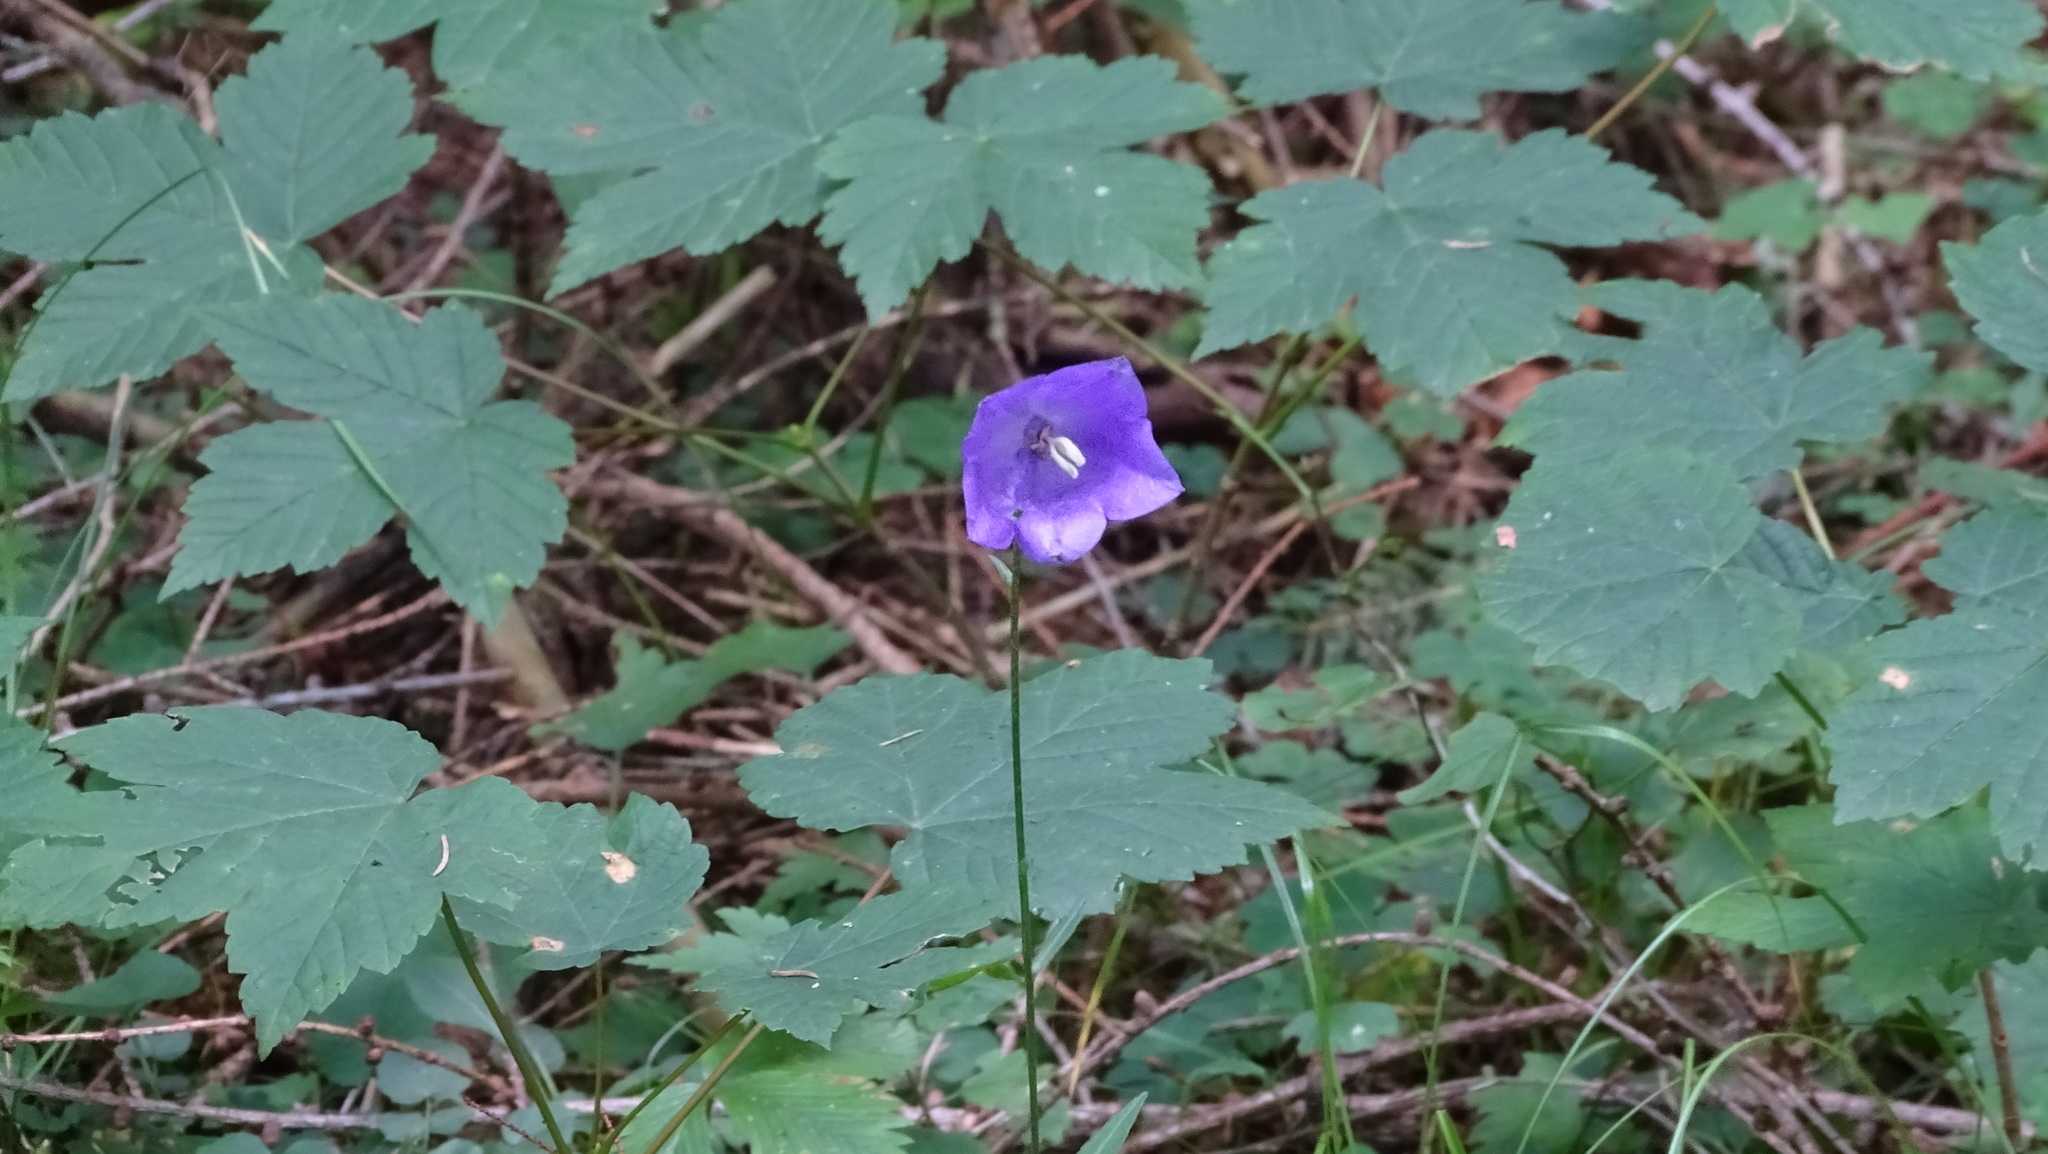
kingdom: Plantae
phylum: Tracheophyta
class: Magnoliopsida
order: Asterales
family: Campanulaceae
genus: Campanula
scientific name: Campanula persicifolia
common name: Peach-leaved bellflower
